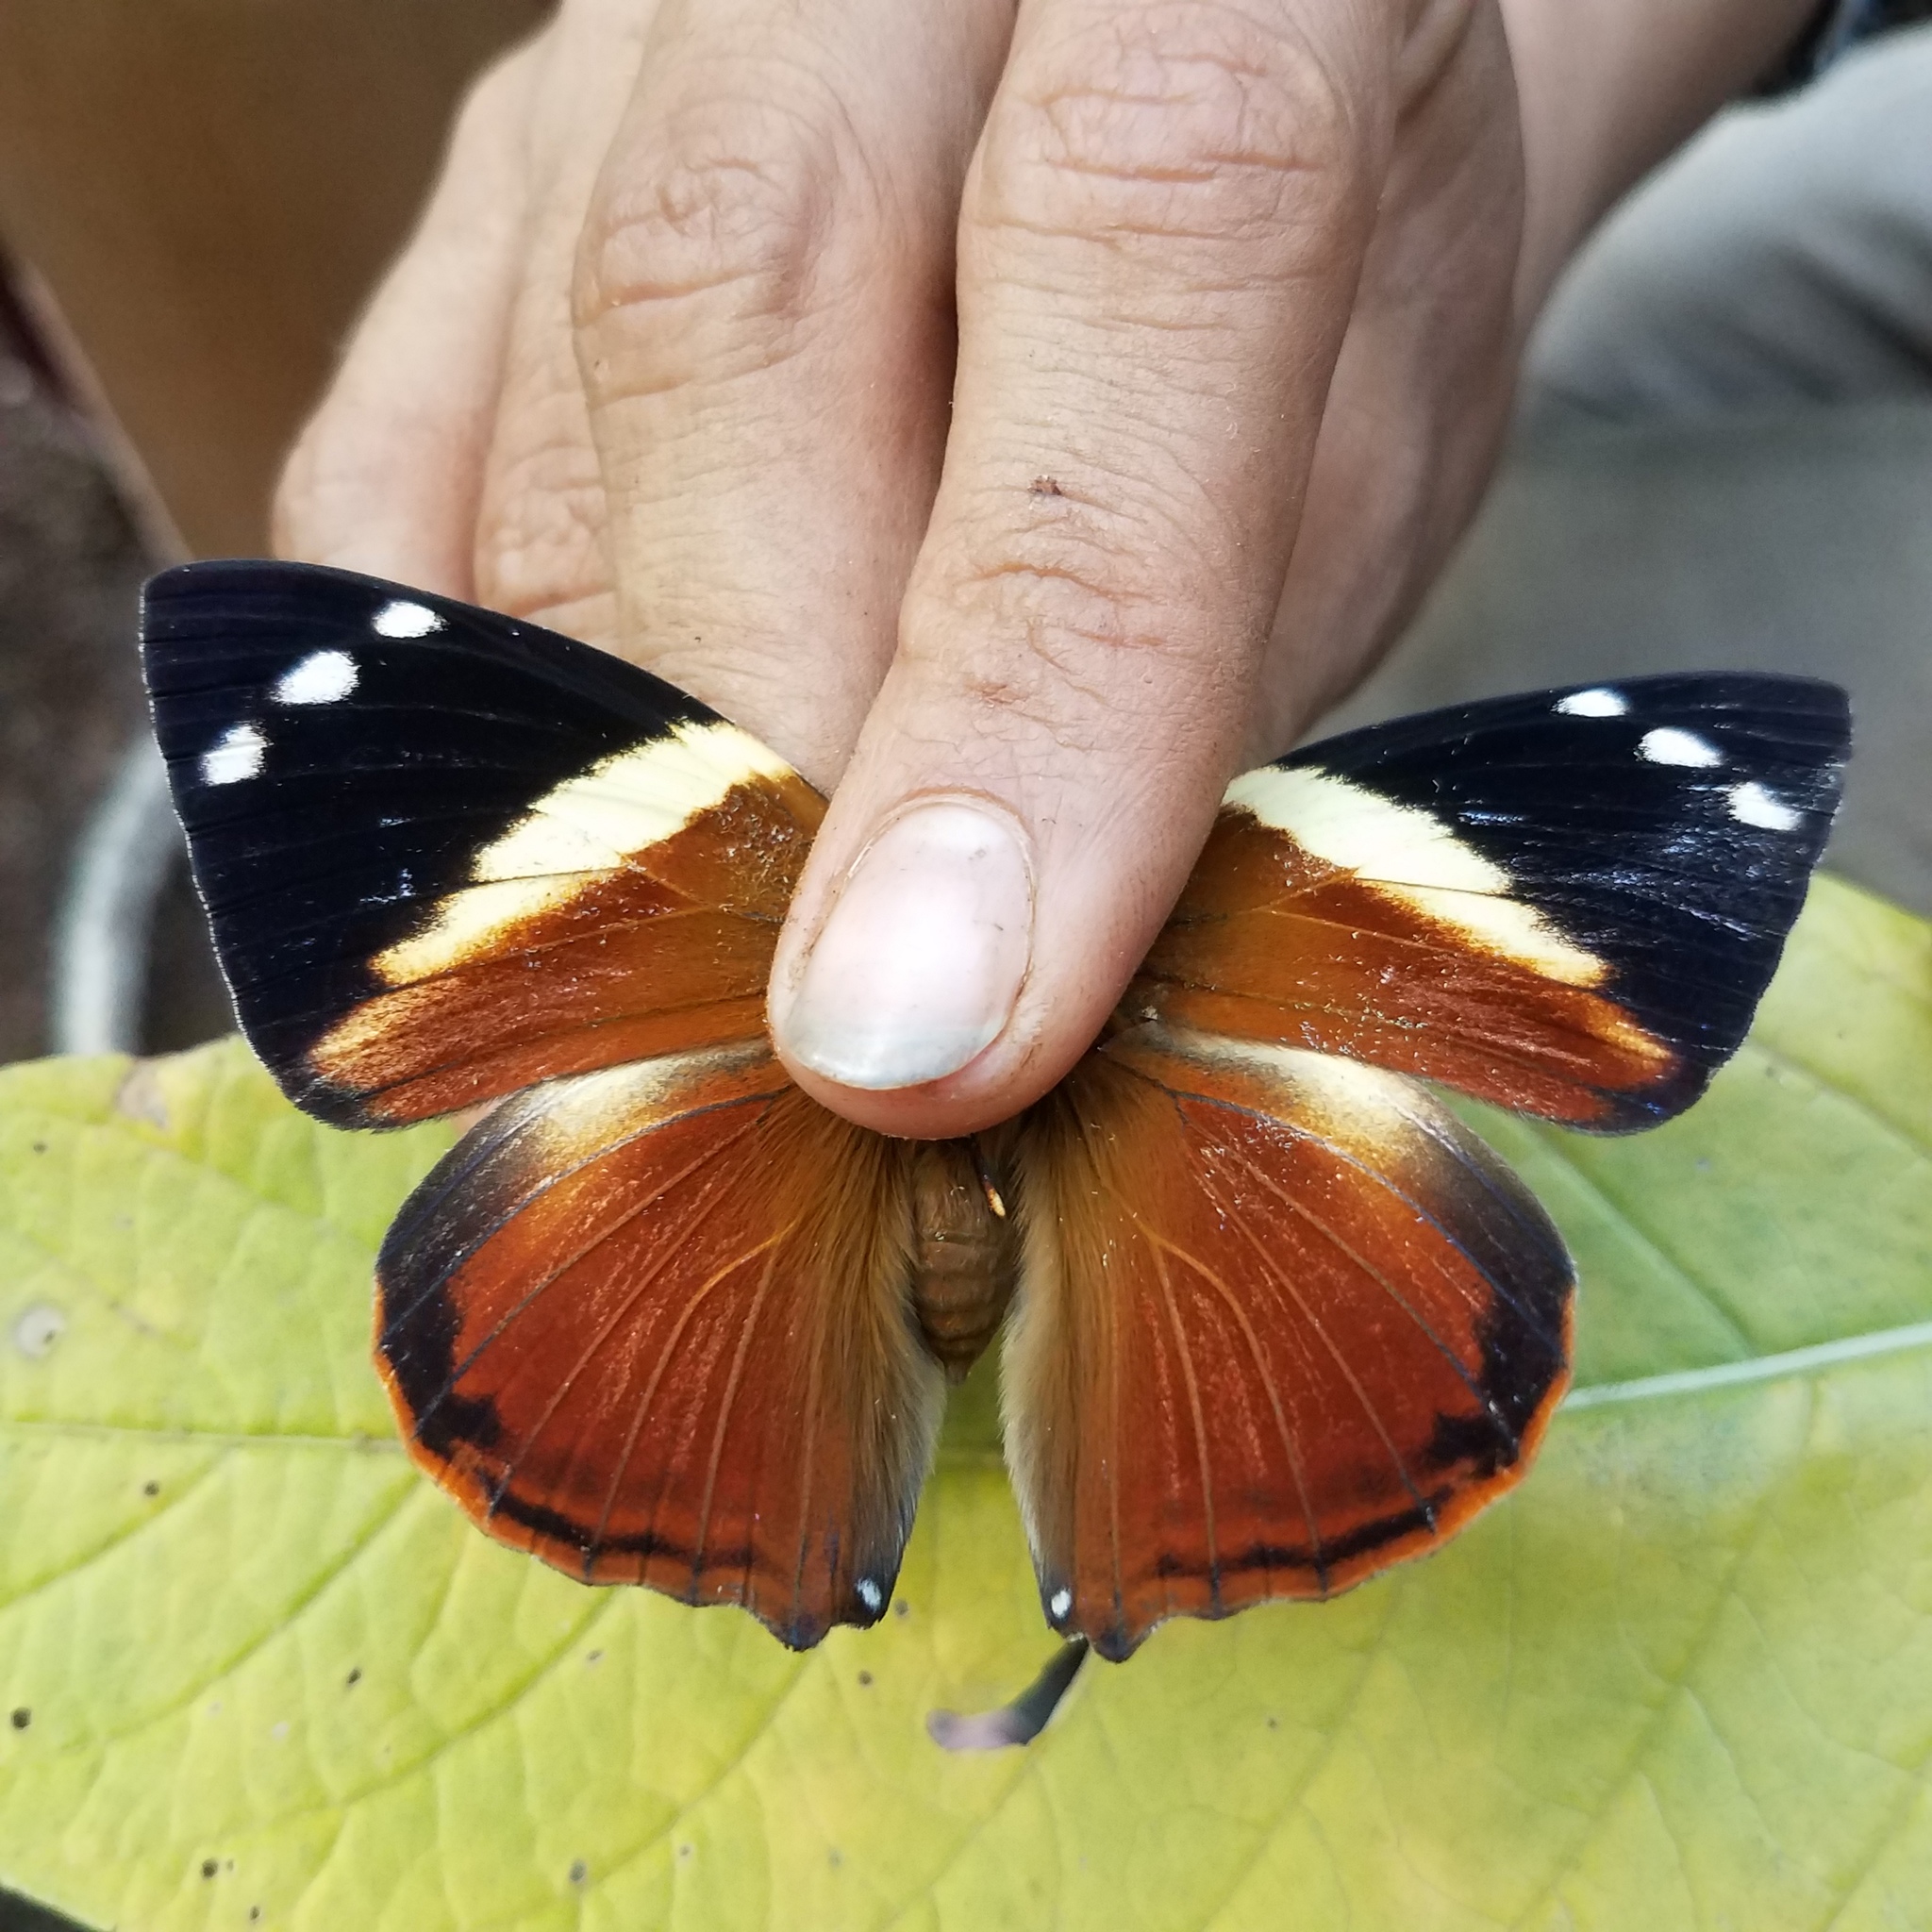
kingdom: Animalia
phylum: Arthropoda
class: Insecta
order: Lepidoptera
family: Nymphalidae
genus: Smyrna
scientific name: Smyrna blomfildia
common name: Blomfild's beauty
